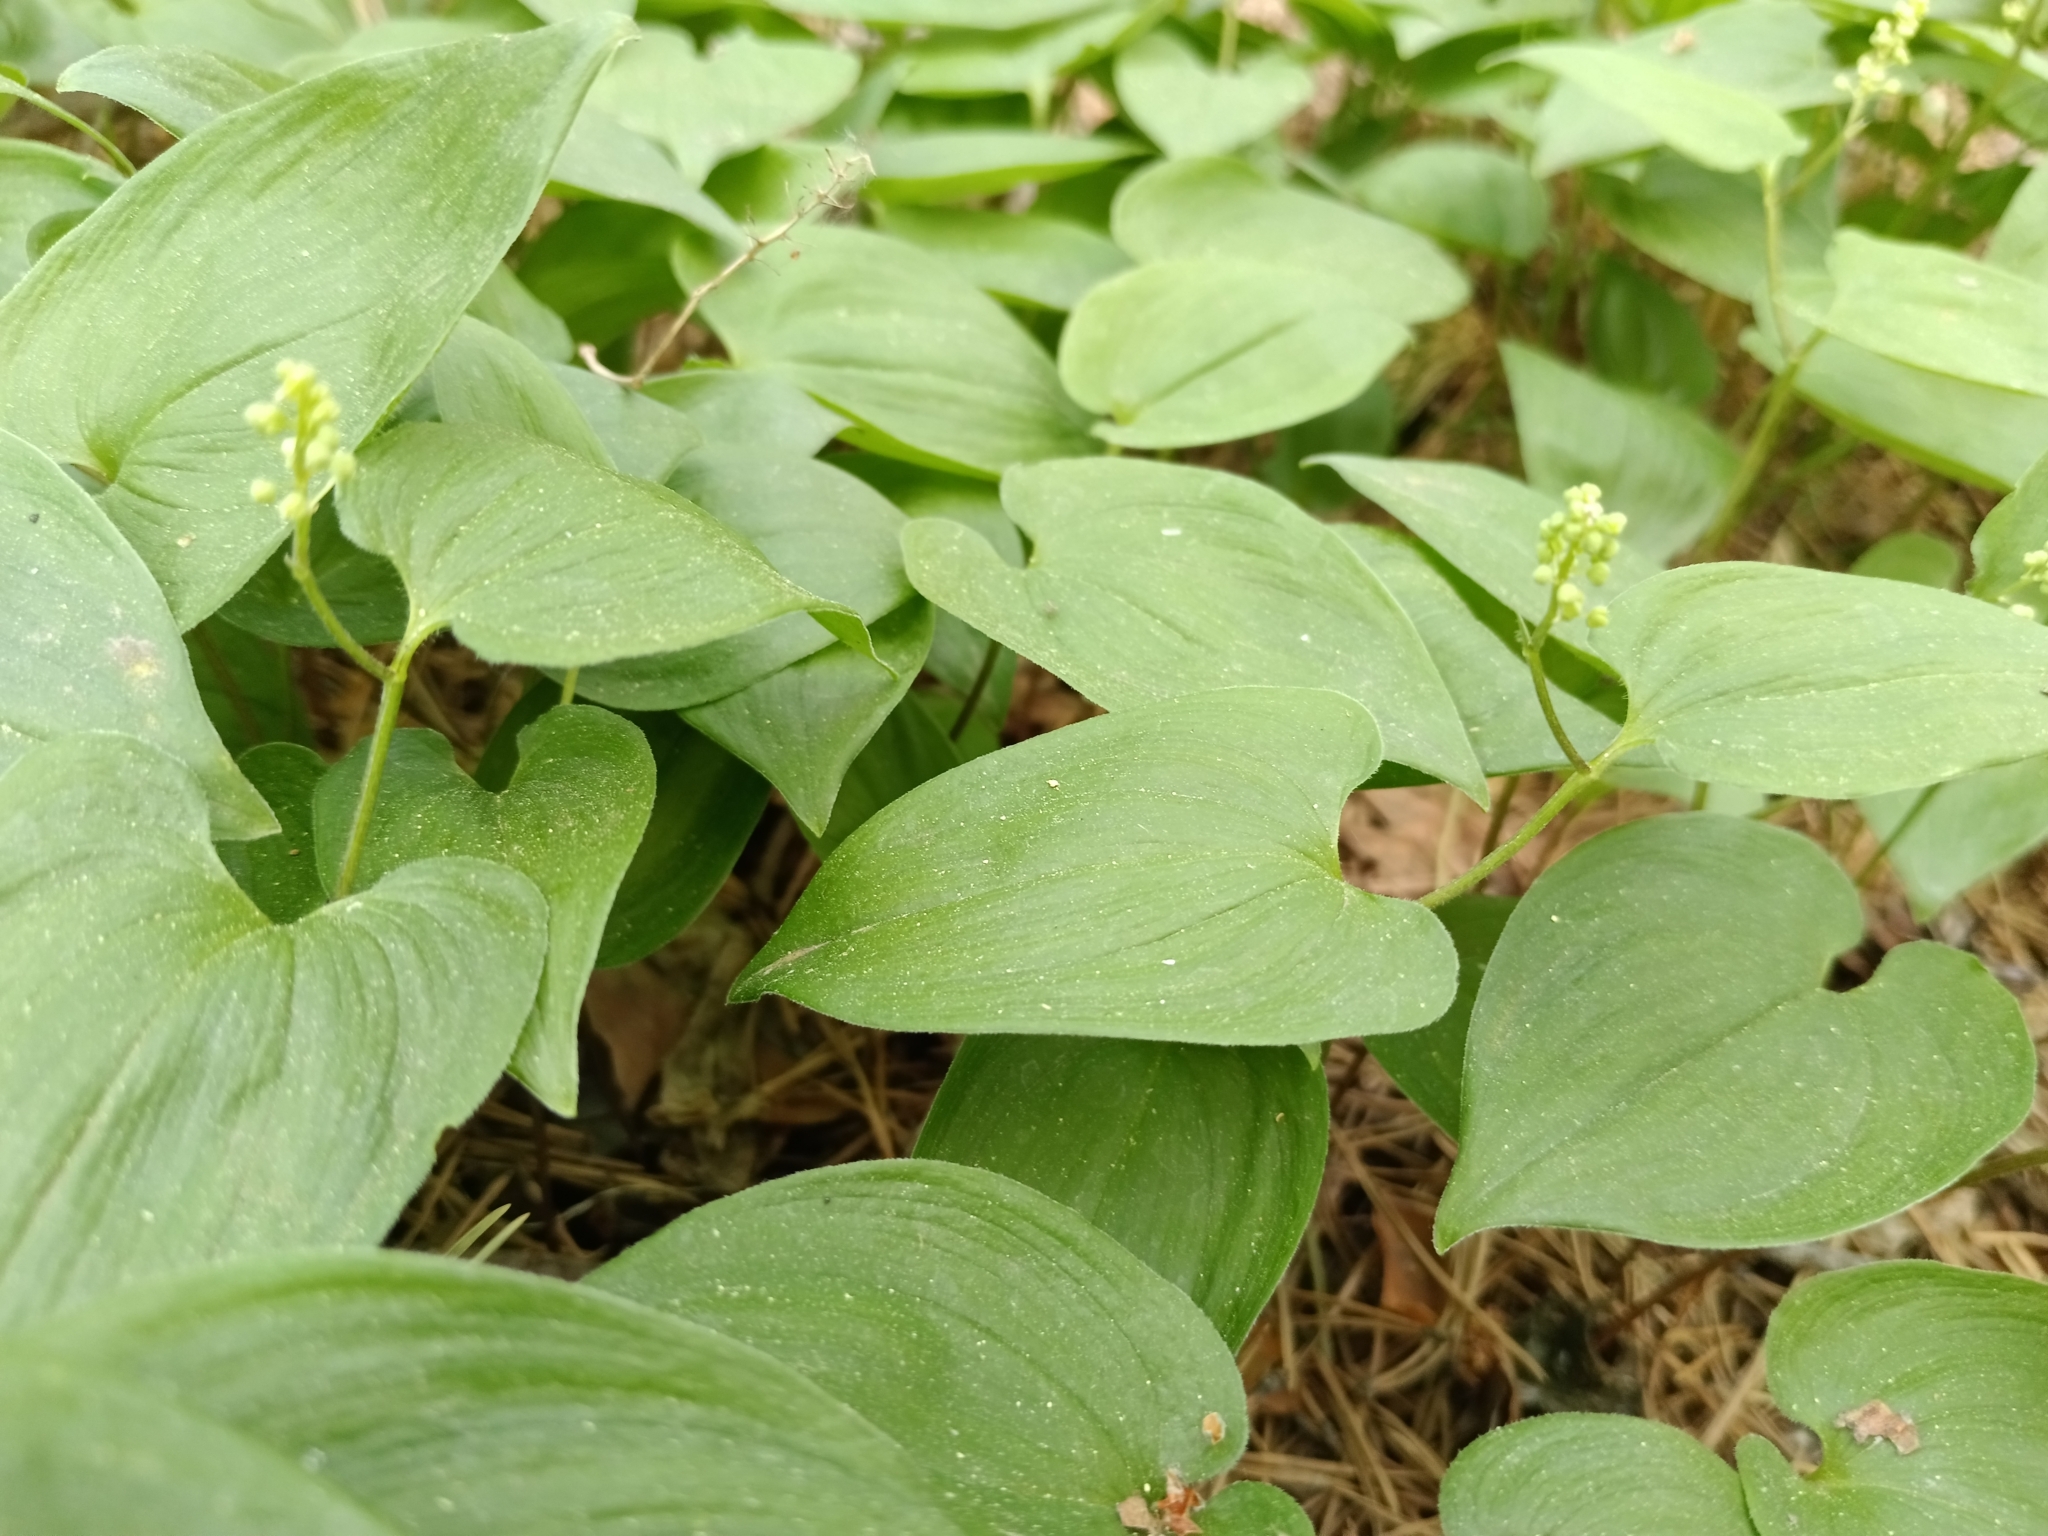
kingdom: Plantae
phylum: Tracheophyta
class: Liliopsida
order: Asparagales
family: Asparagaceae
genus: Maianthemum
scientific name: Maianthemum bifolium
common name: May lily
